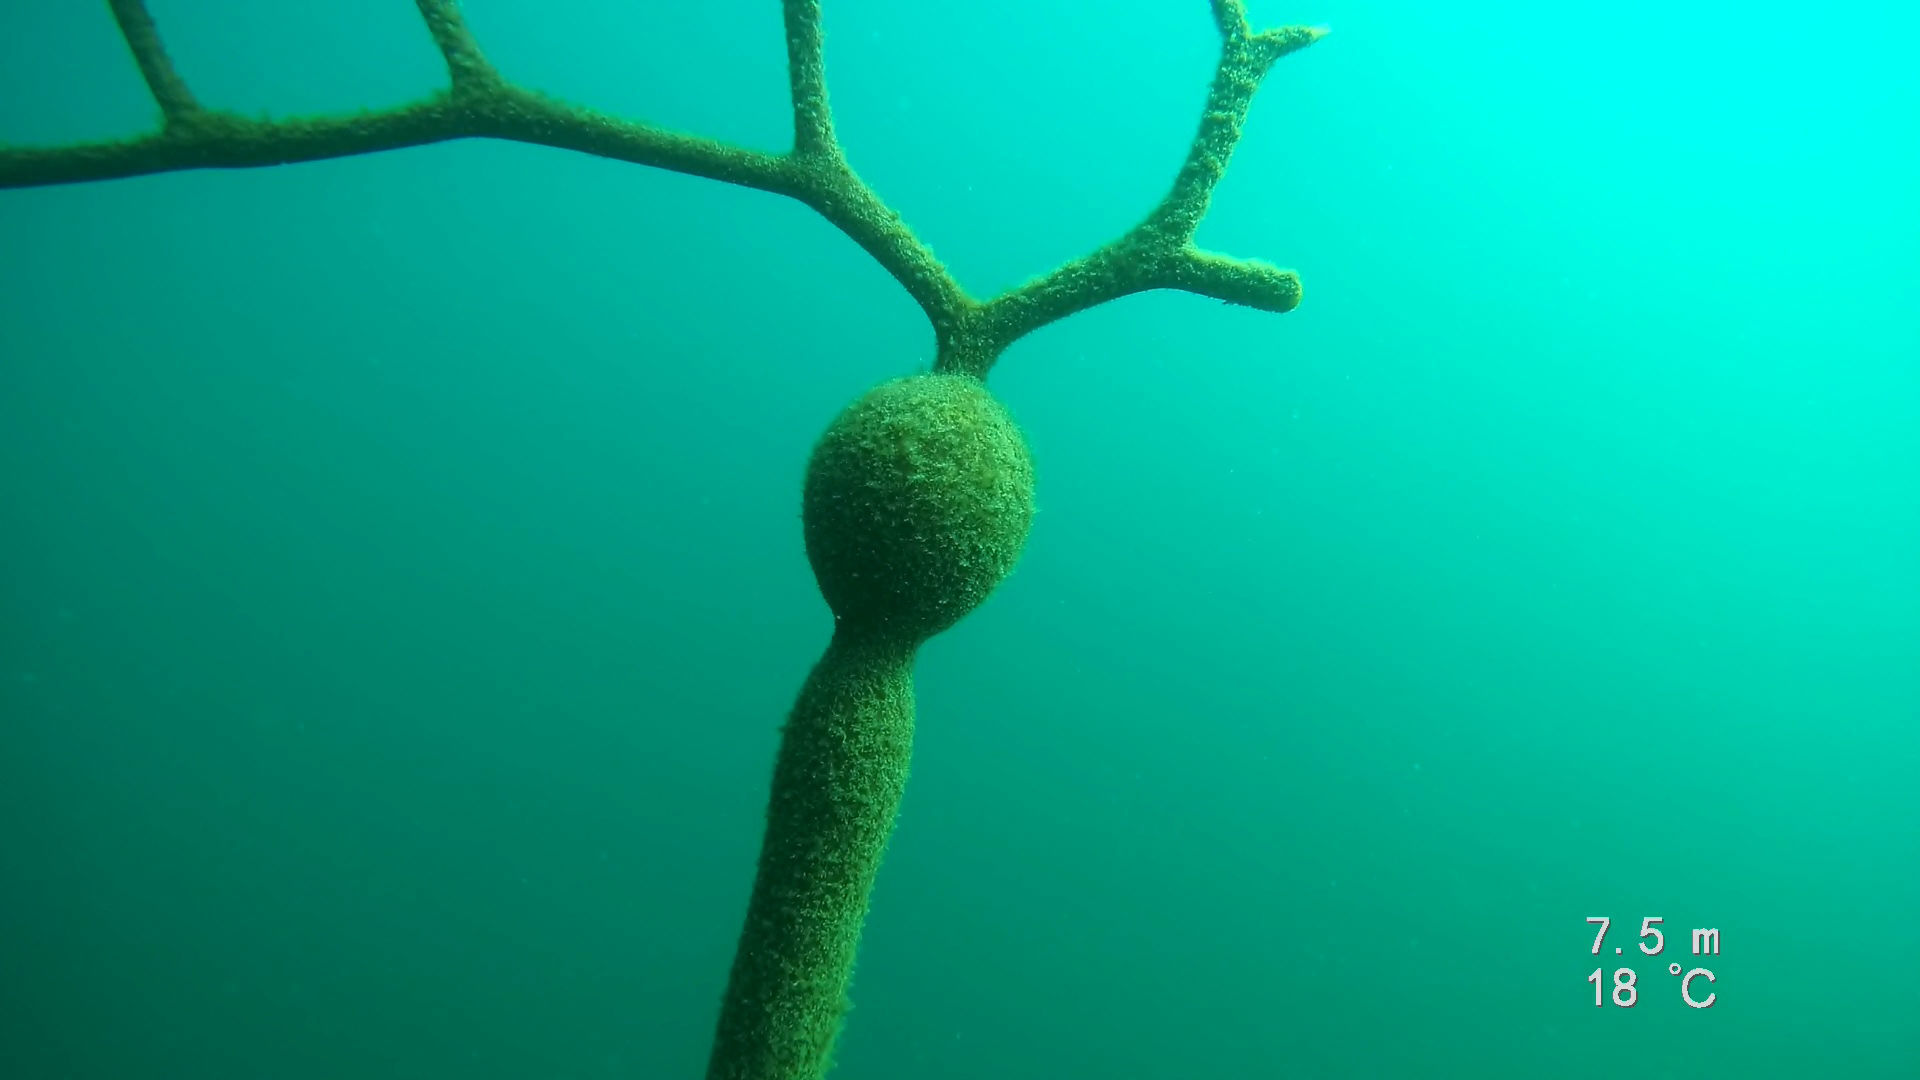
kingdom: Chromista
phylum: Ochrophyta
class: Phaeophyceae
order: Laminariales
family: Laminariaceae
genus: Pelagophycus
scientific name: Pelagophycus porra
